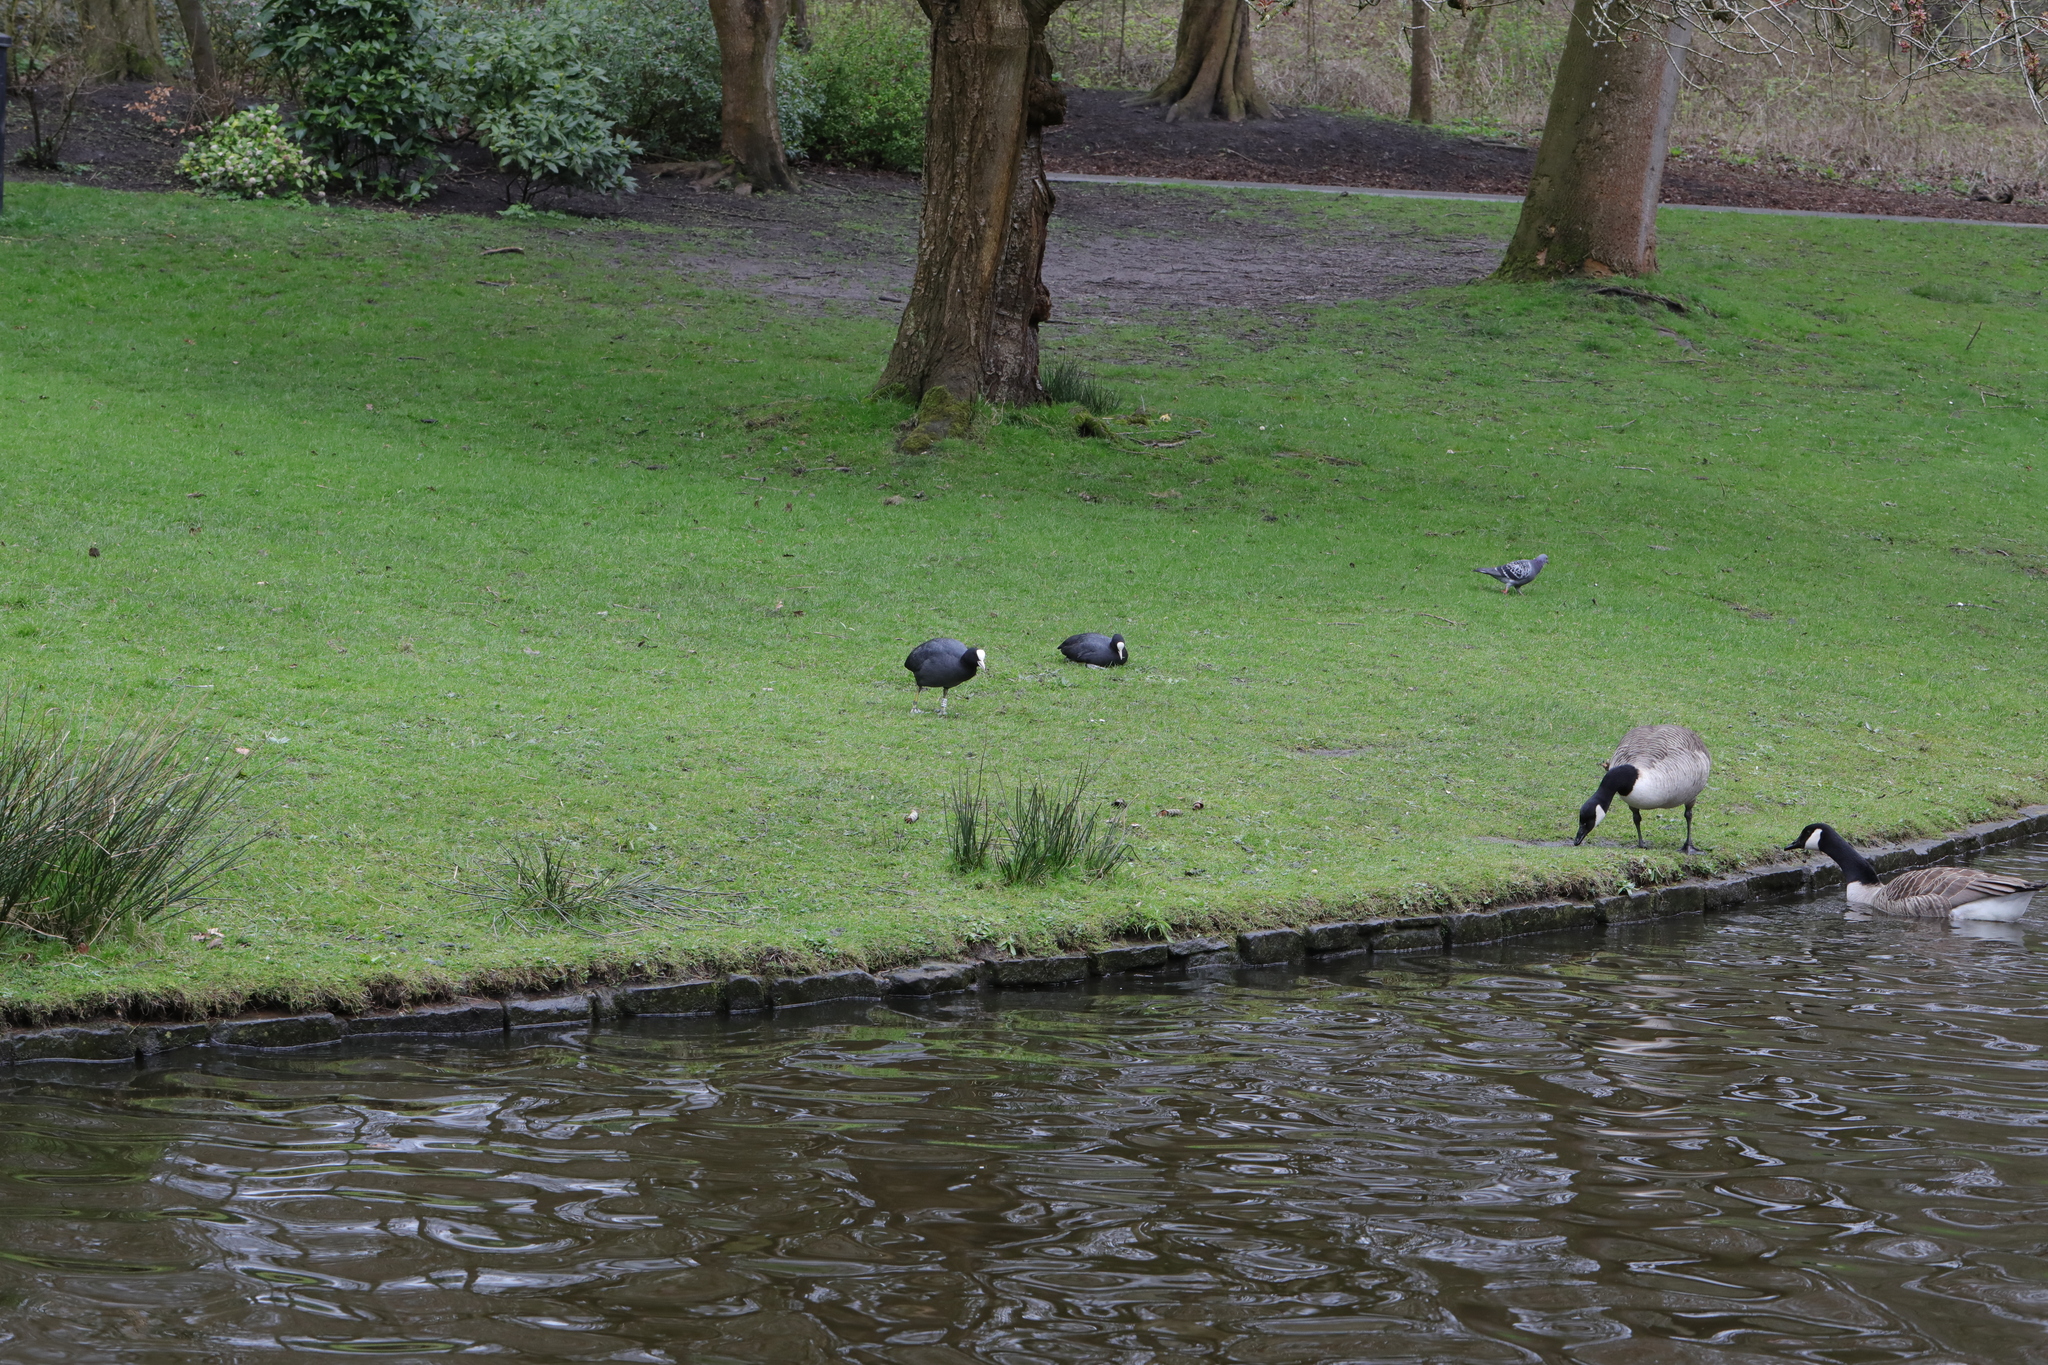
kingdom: Animalia
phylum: Chordata
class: Aves
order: Gruiformes
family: Rallidae
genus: Fulica
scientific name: Fulica atra
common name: Eurasian coot
